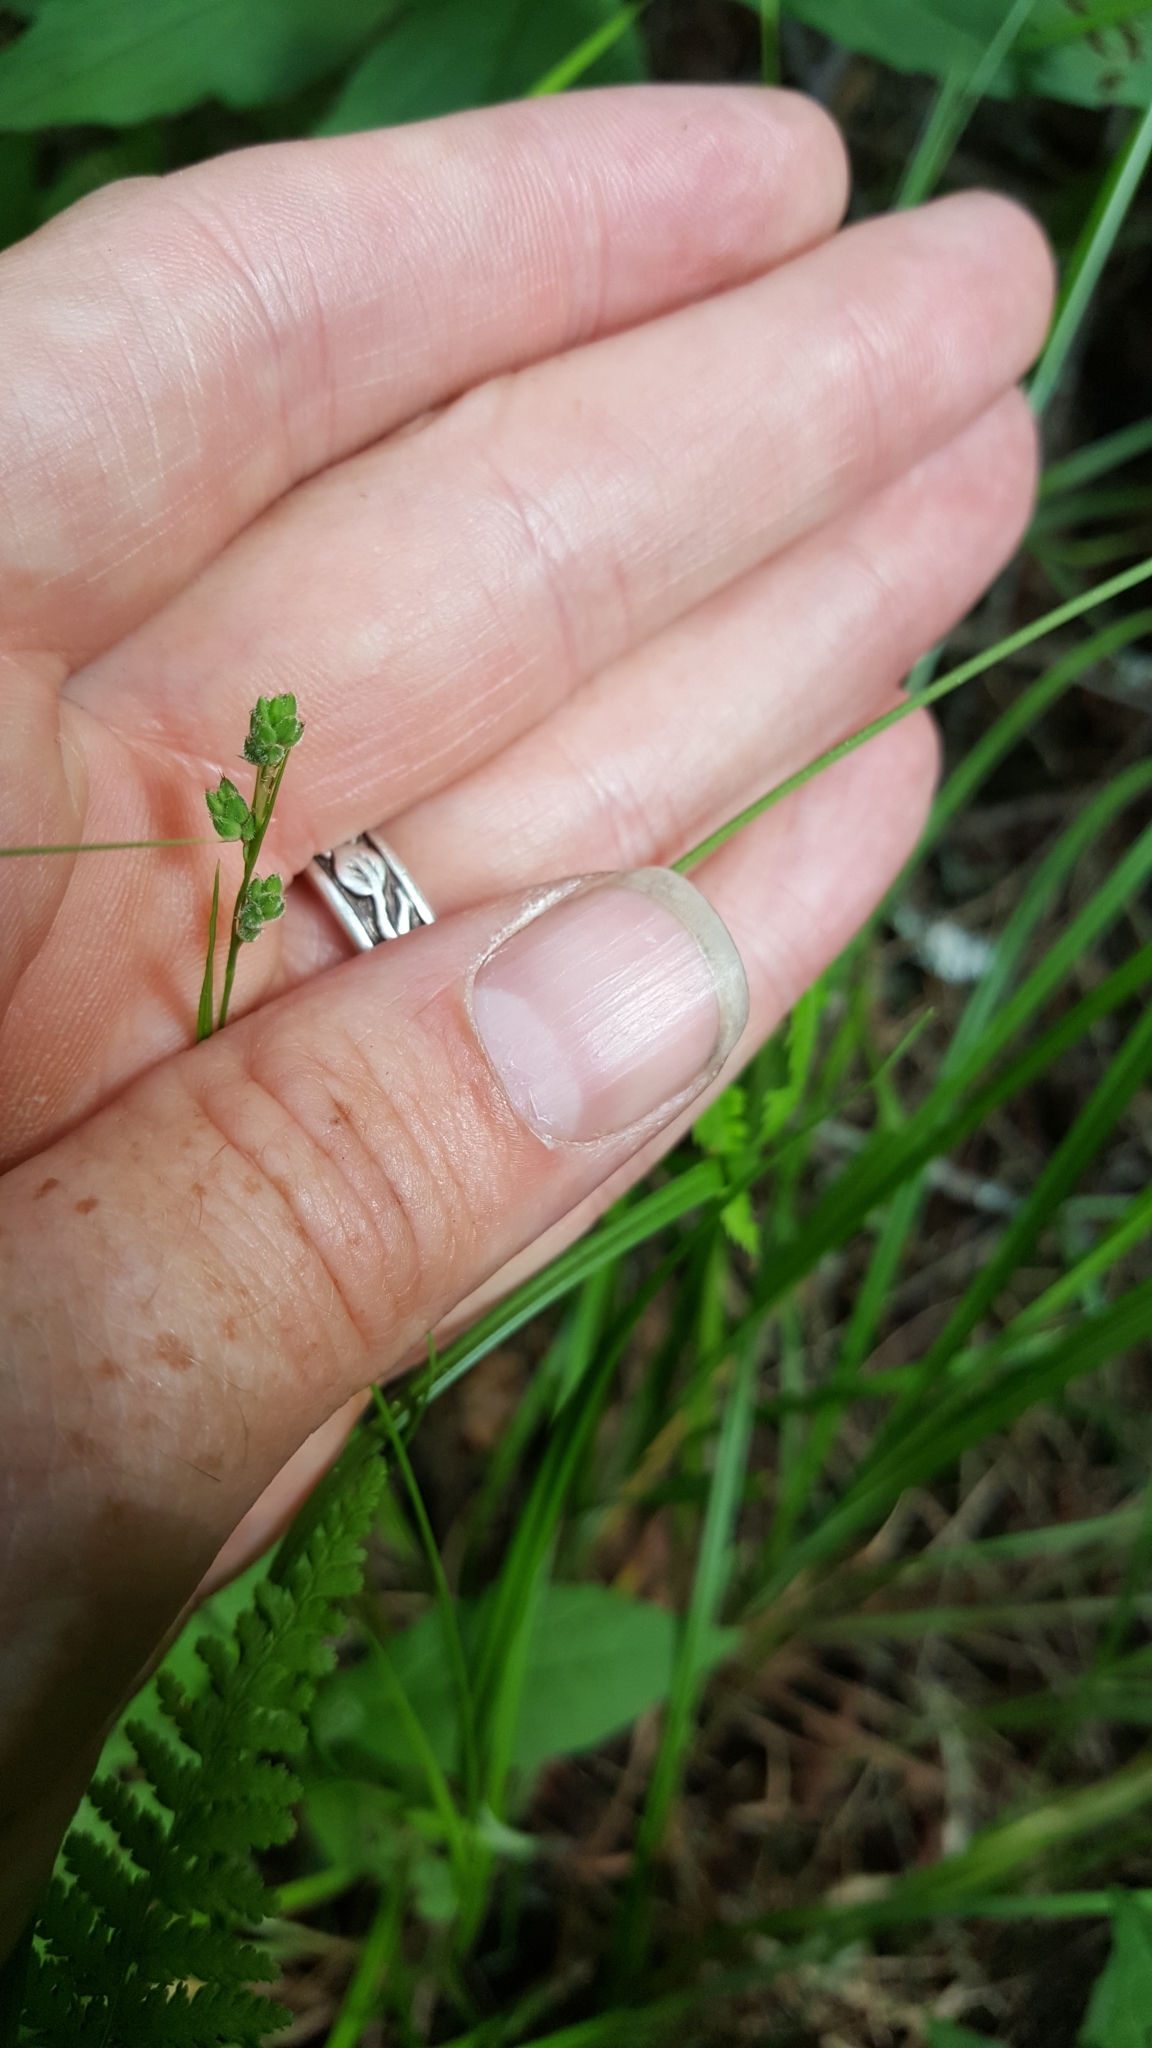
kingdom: Plantae
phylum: Tracheophyta
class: Liliopsida
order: Poales
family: Cyperaceae
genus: Carex
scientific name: Carex swanii
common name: Downy green sedge
